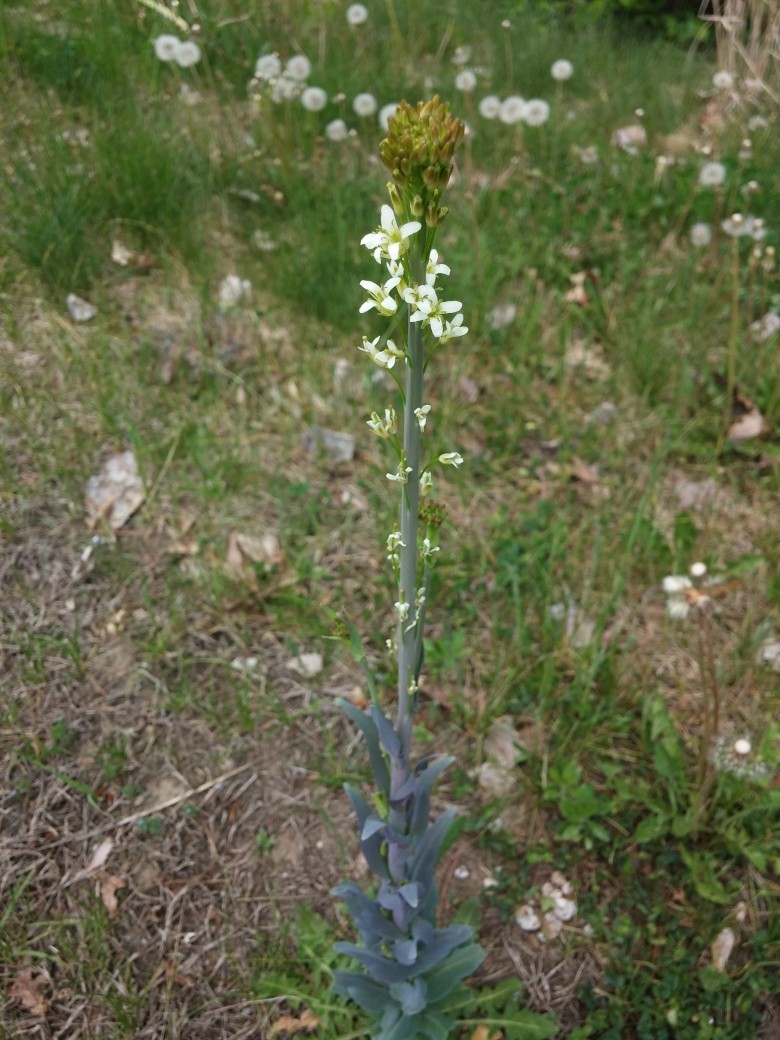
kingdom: Plantae
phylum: Tracheophyta
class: Magnoliopsida
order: Brassicales
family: Brassicaceae
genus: Turritis
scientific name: Turritis glabra
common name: Tower rockcress
